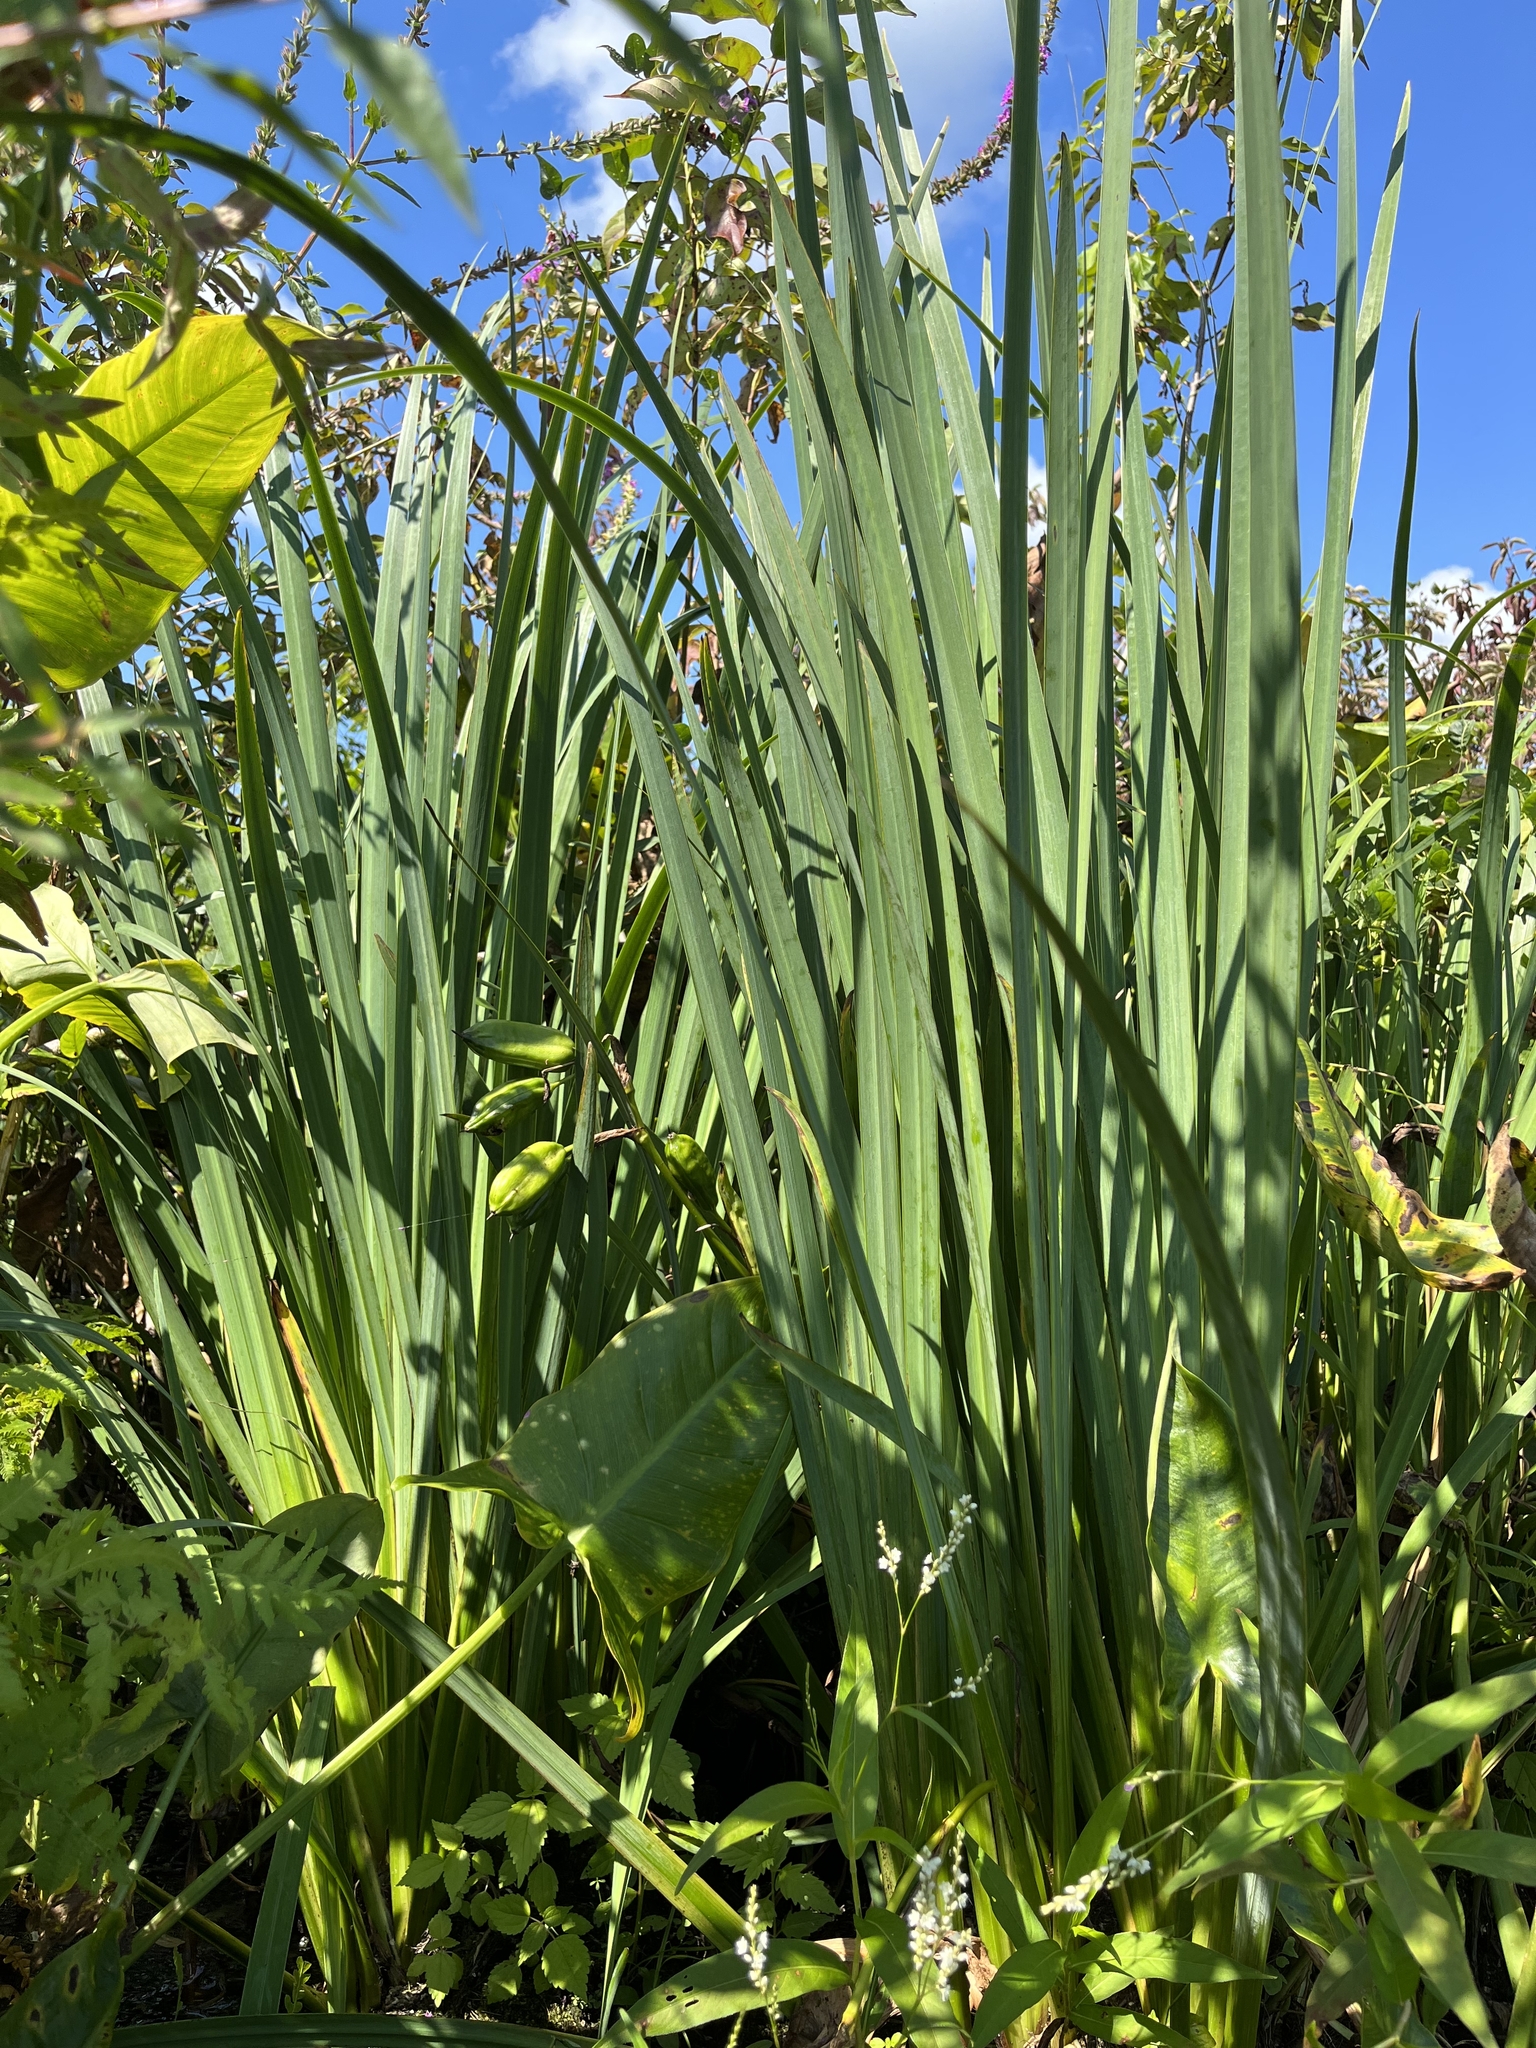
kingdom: Plantae
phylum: Tracheophyta
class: Liliopsida
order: Asparagales
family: Iridaceae
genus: Iris
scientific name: Iris pseudacorus
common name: Yellow flag
